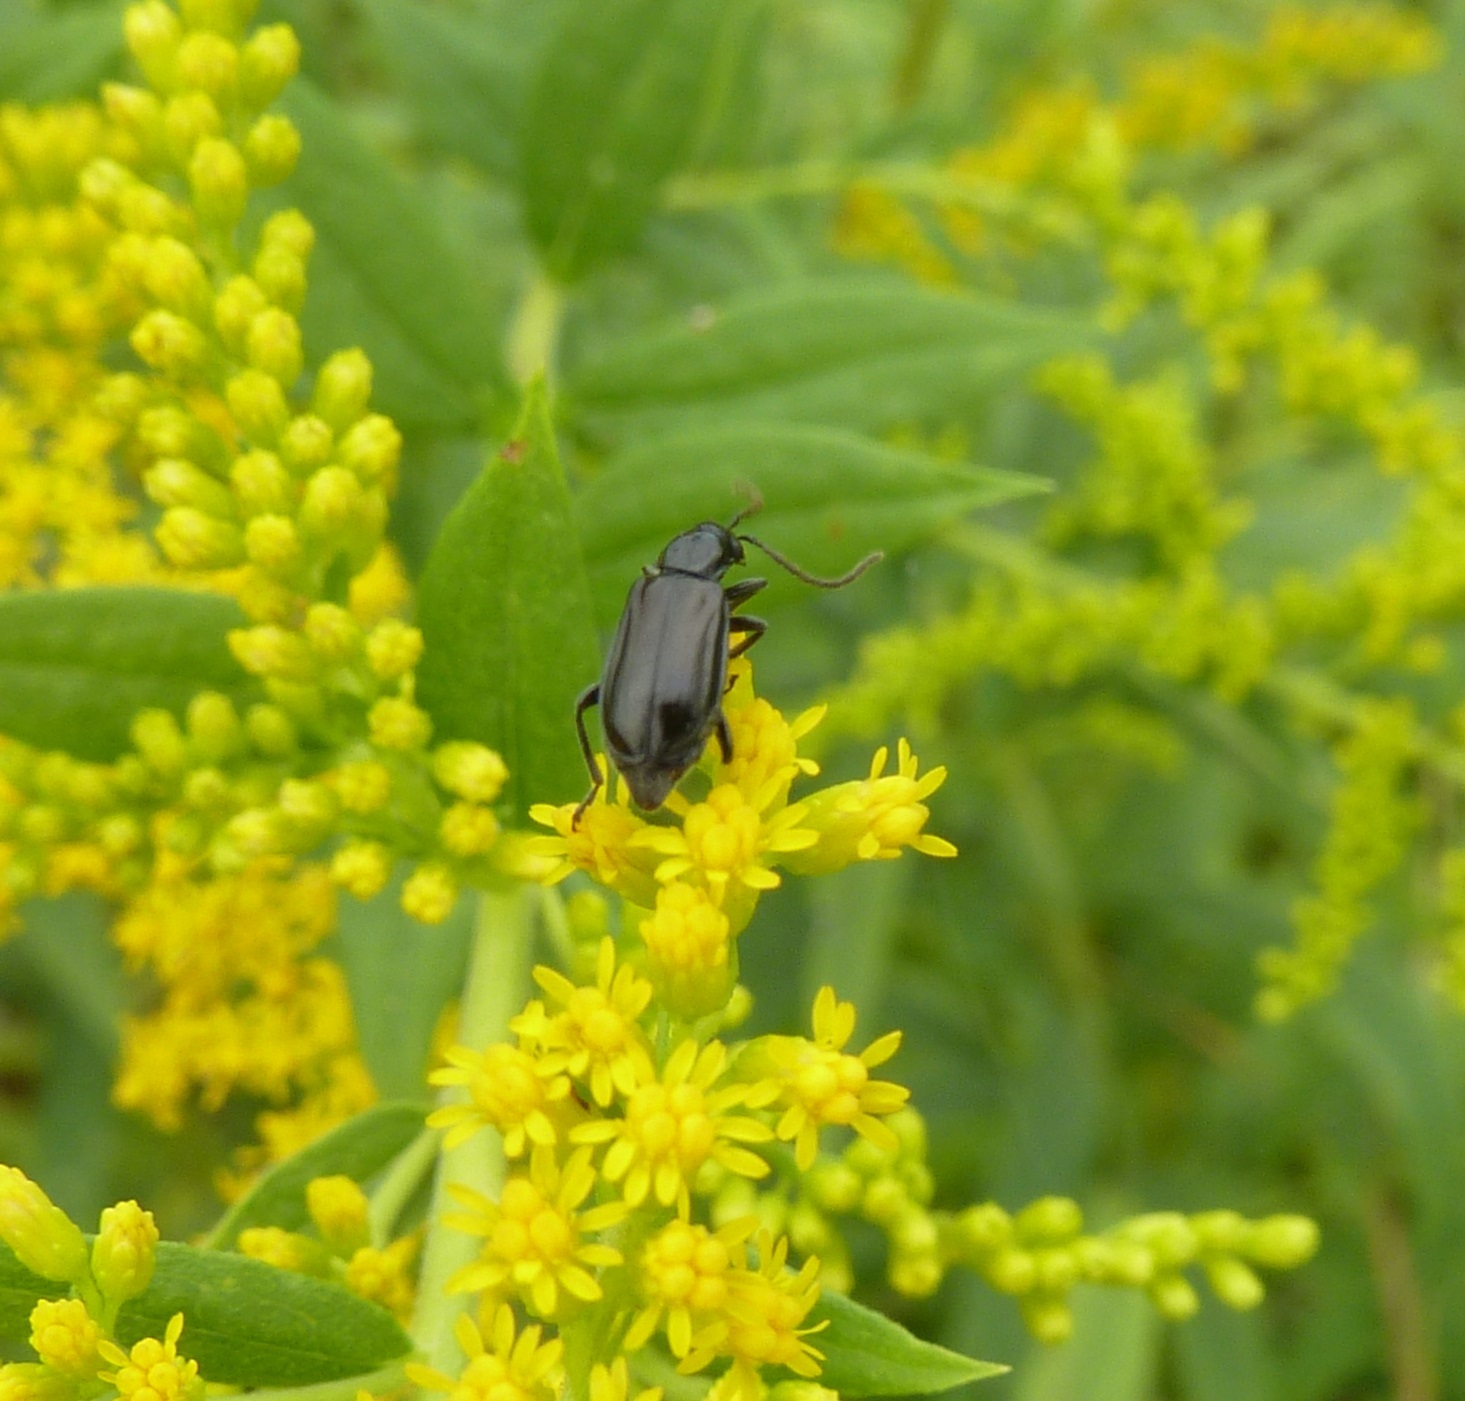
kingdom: Animalia
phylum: Arthropoda
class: Insecta
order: Coleoptera
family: Chrysomelidae
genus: Diabrotica
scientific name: Diabrotica cristata
